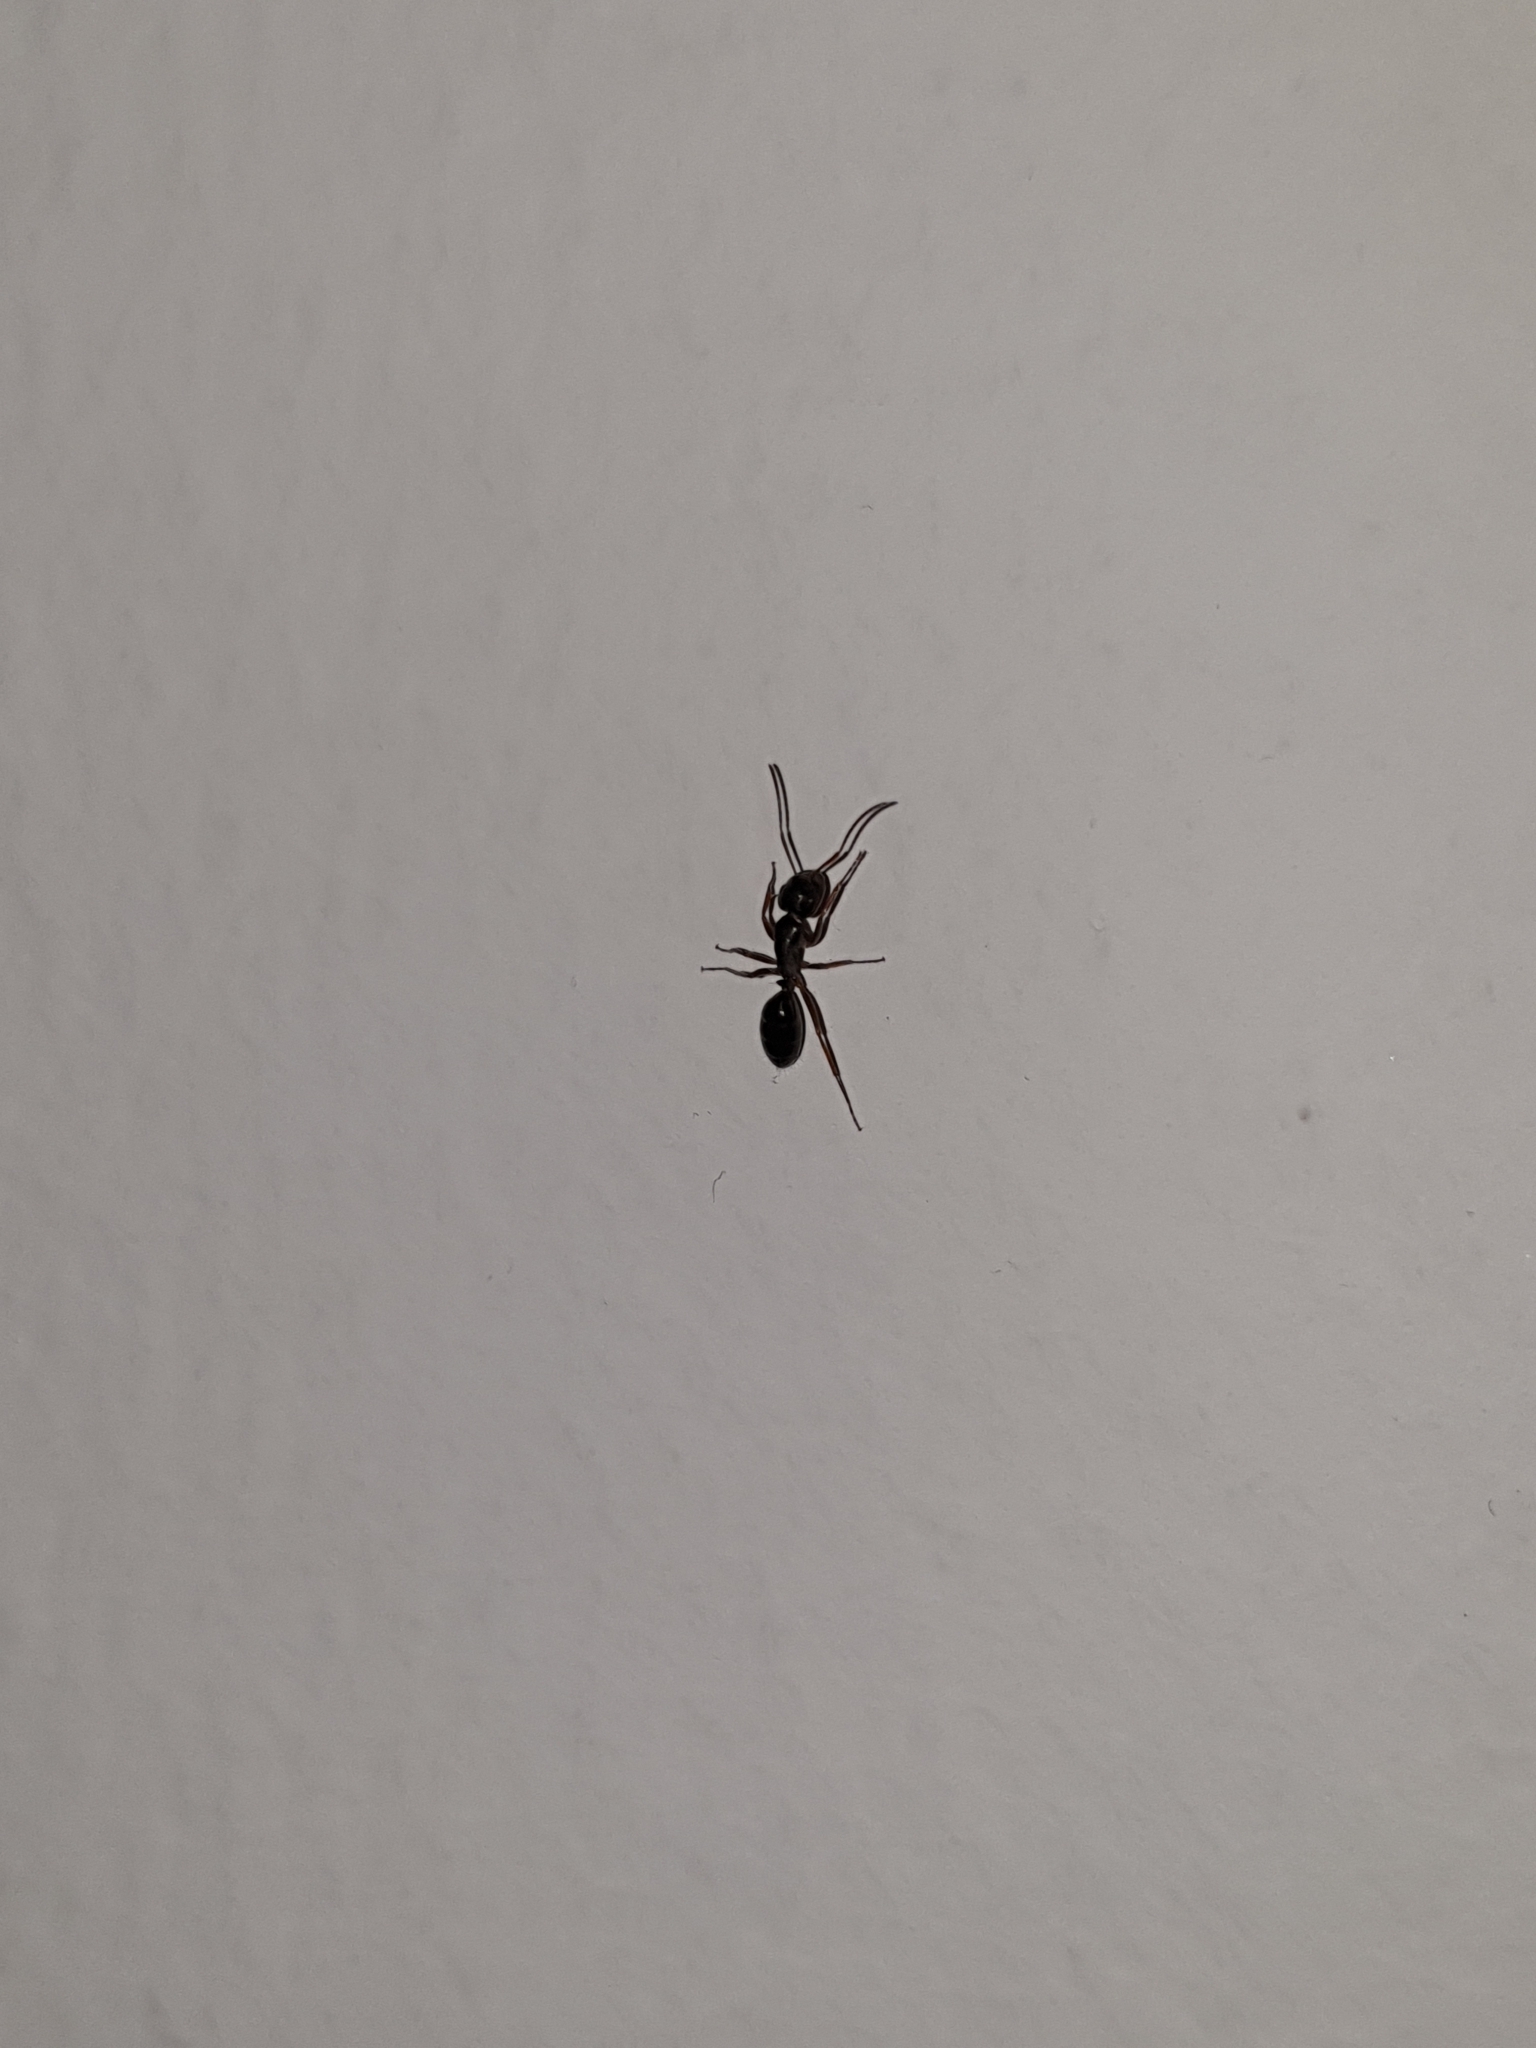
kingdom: Animalia
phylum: Arthropoda
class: Insecta
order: Hymenoptera
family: Formicidae
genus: Camponotus
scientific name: Camponotus fallax
